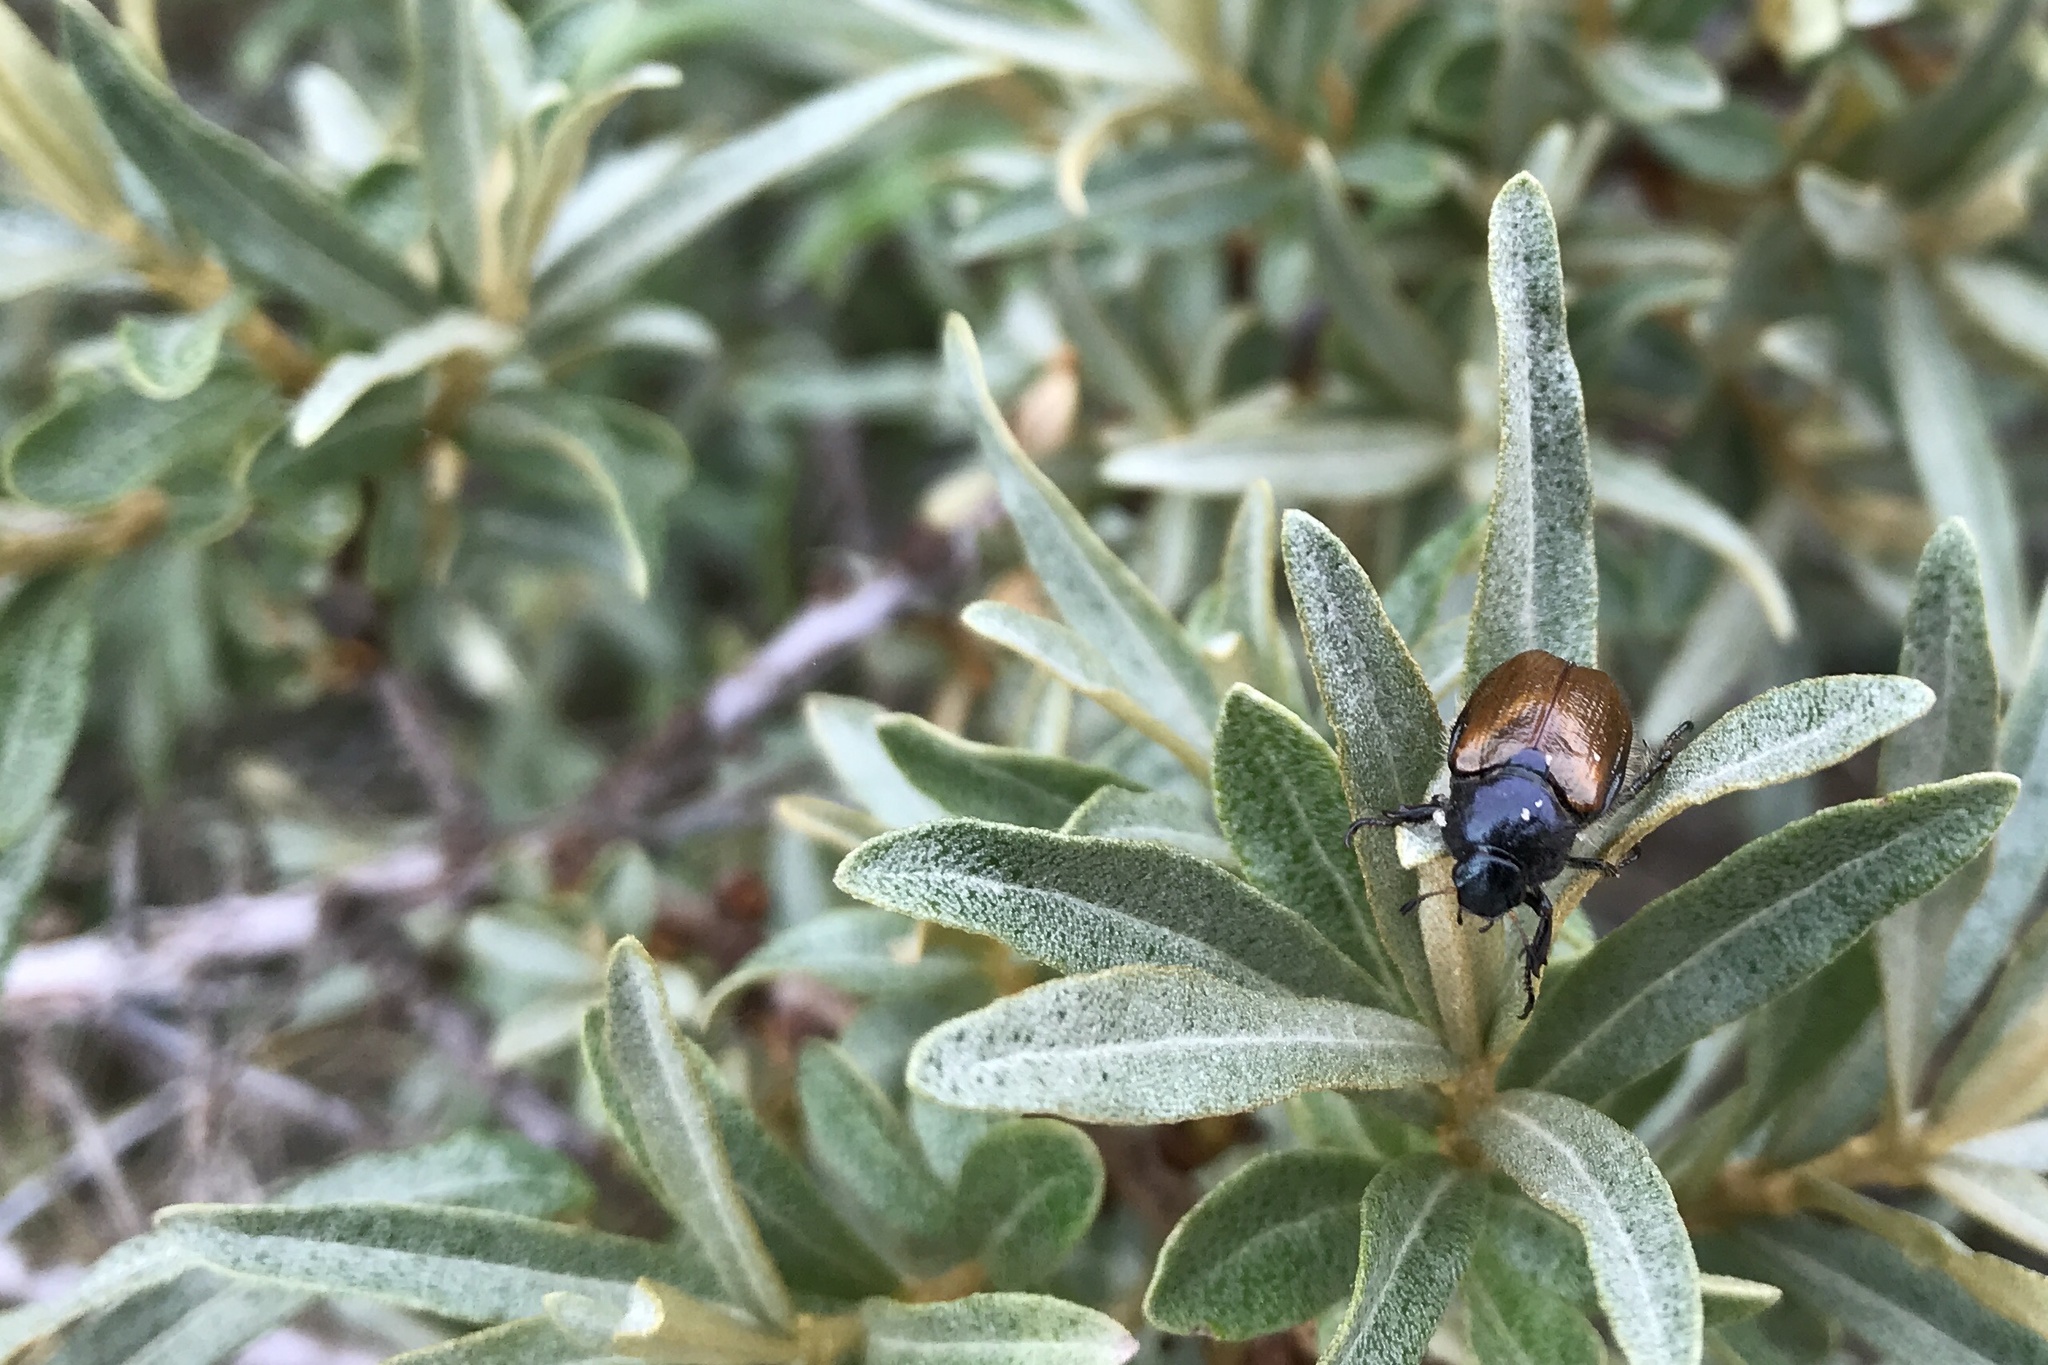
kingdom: Animalia
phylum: Arthropoda
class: Insecta
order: Coleoptera
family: Scarabaeidae
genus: Phyllopertha
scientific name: Phyllopertha horticola
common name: Garden chafer
